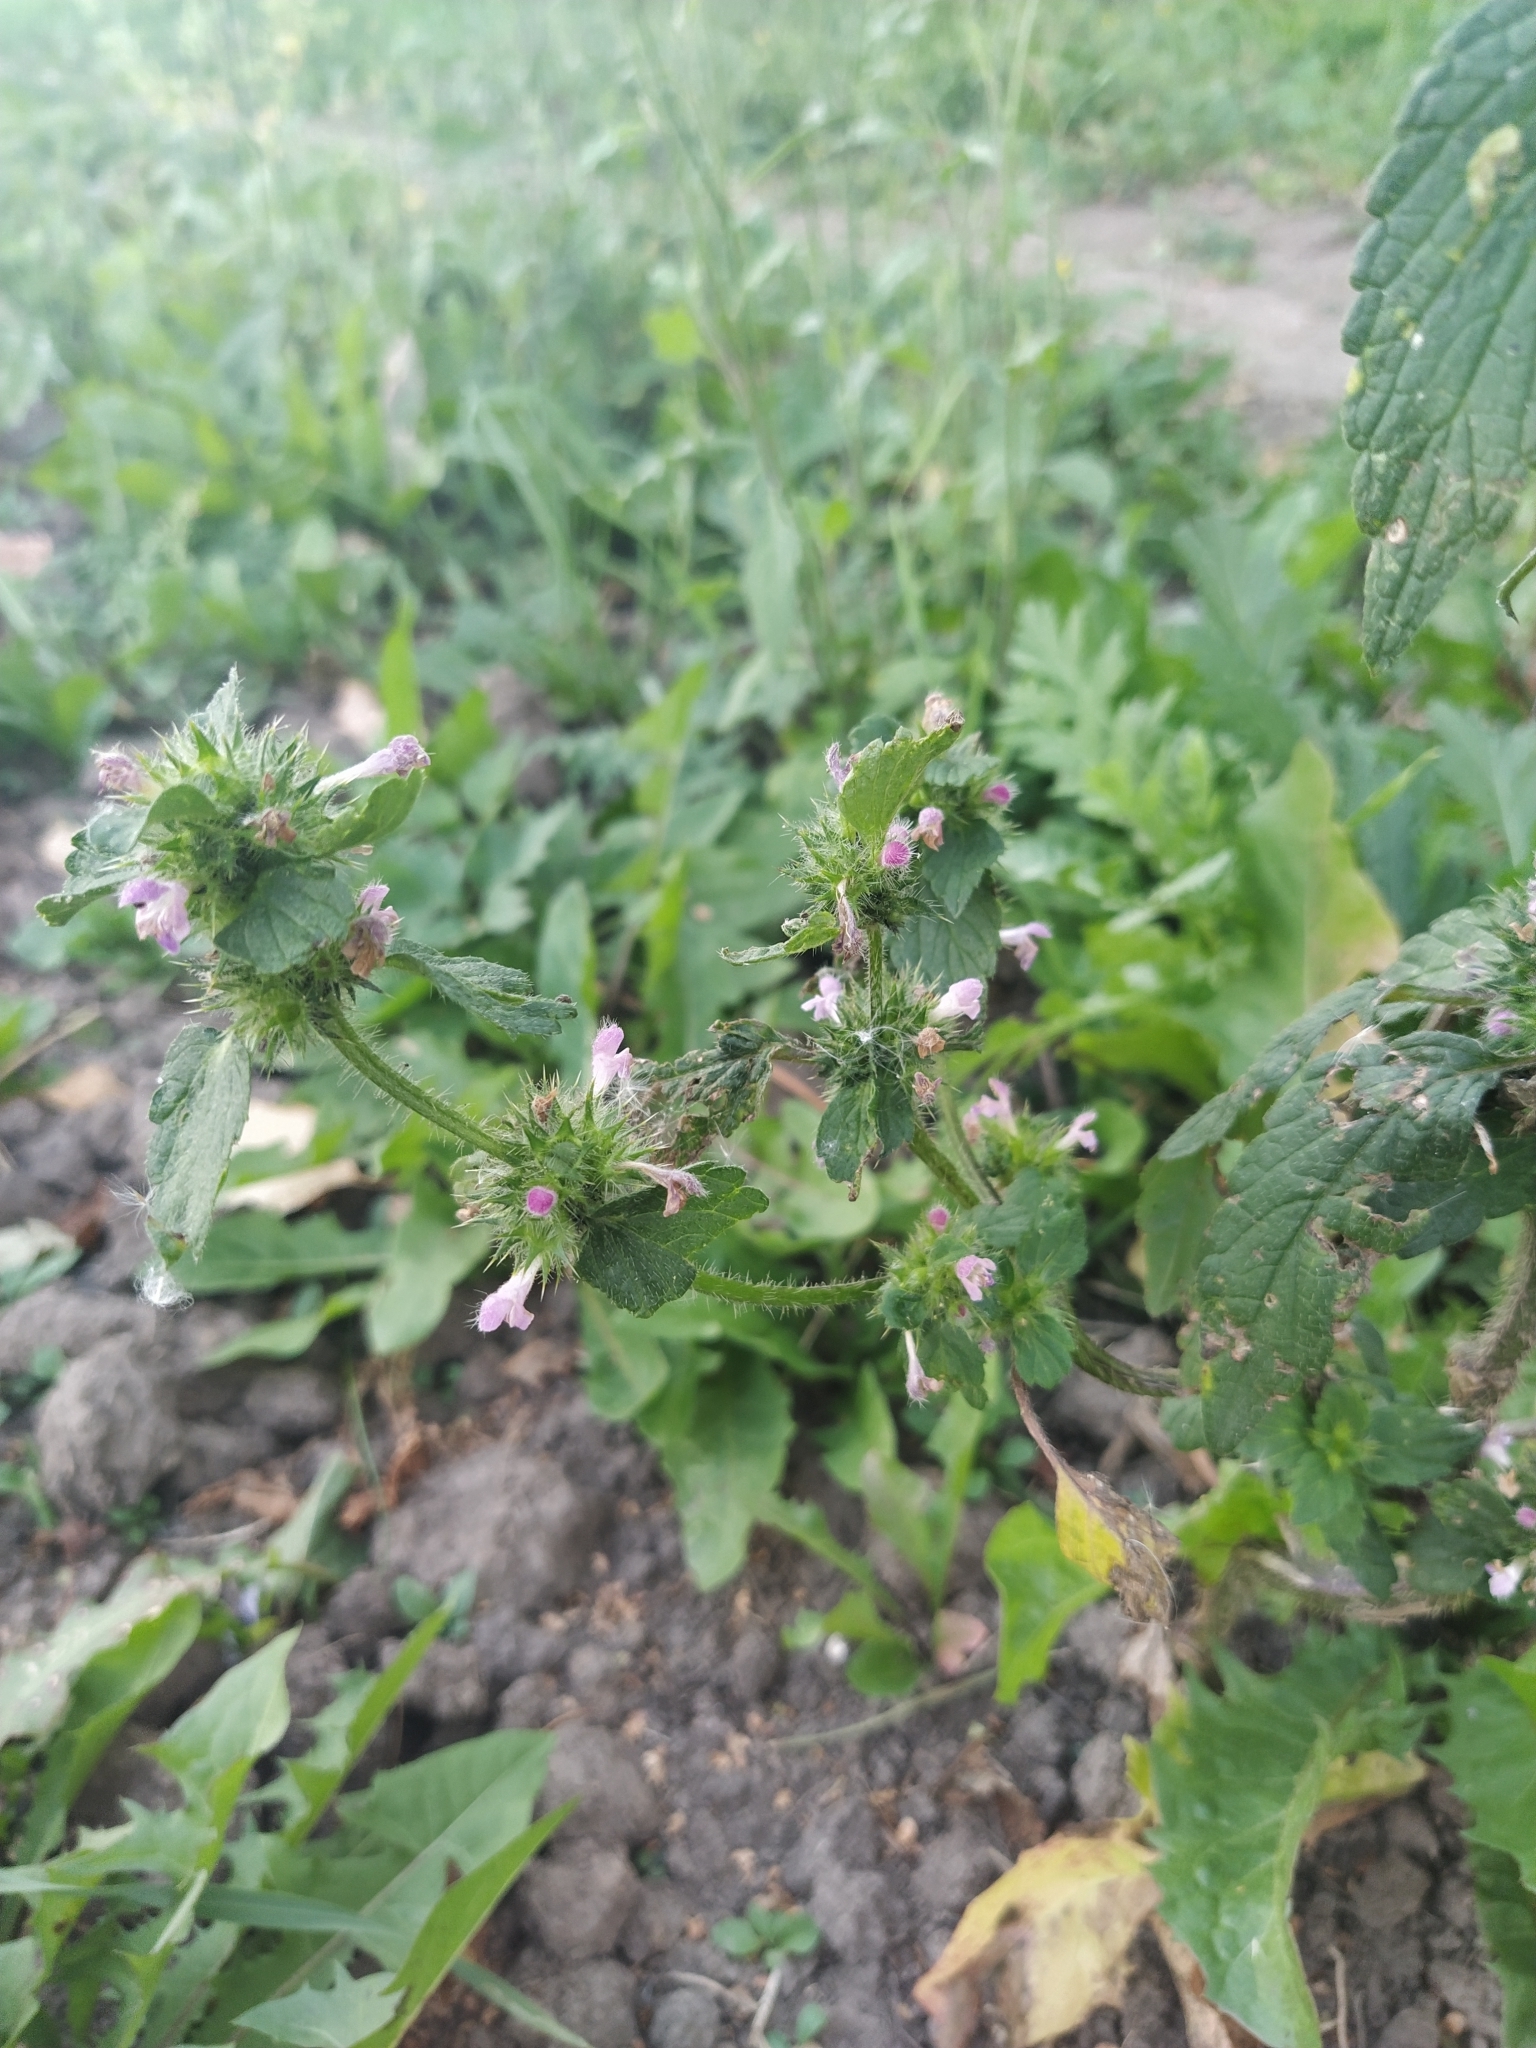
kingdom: Plantae
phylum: Tracheophyta
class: Magnoliopsida
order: Lamiales
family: Lamiaceae
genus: Galeopsis
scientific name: Galeopsis bifida
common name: Bifid hemp-nettle
